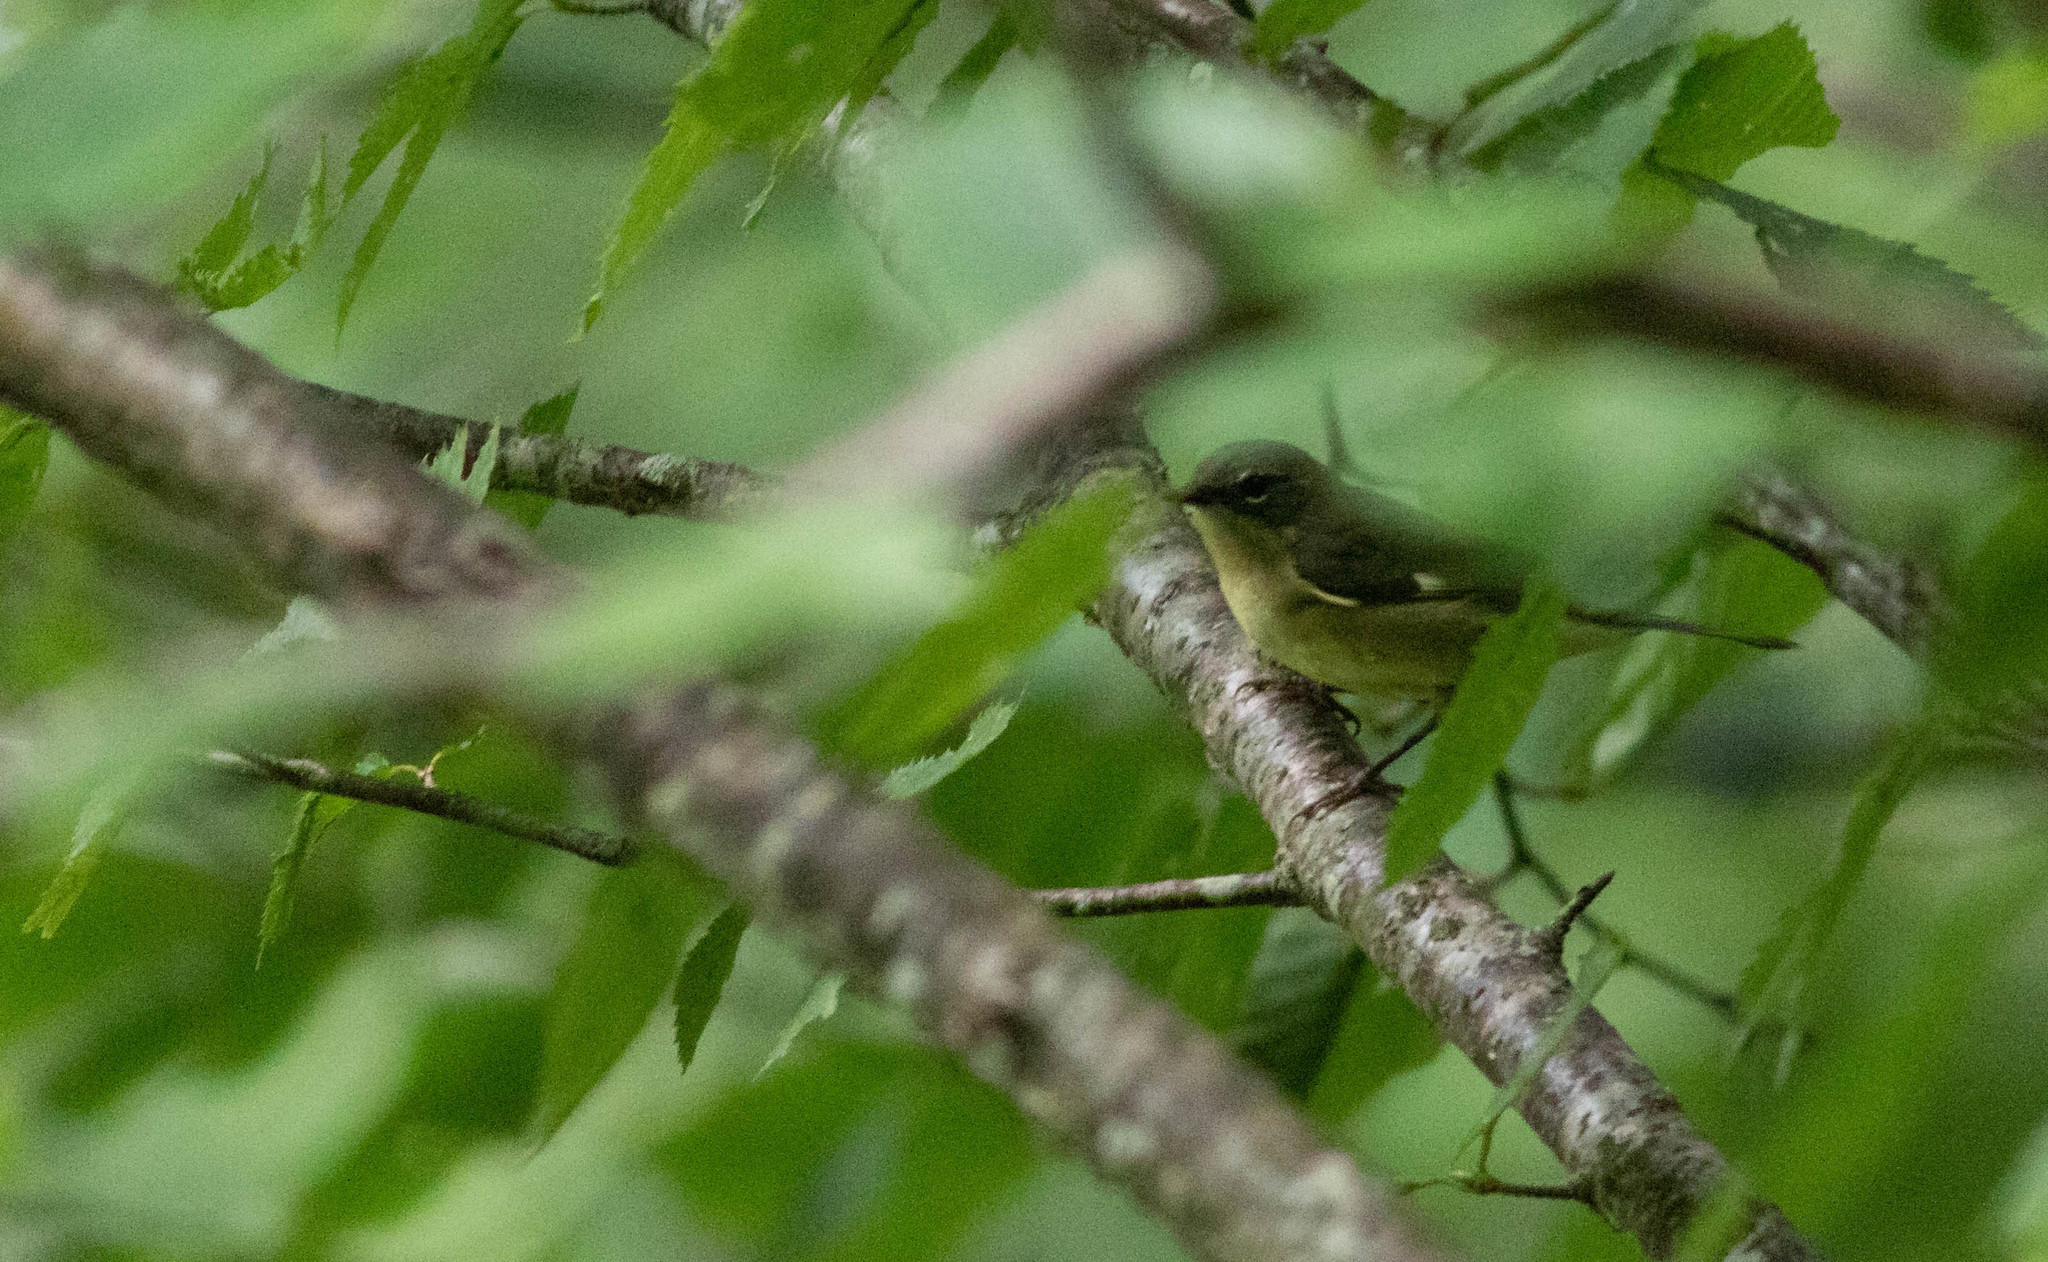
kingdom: Animalia
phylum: Chordata
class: Aves
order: Passeriformes
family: Parulidae
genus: Setophaga
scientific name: Setophaga caerulescens
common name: Black-throated blue warbler
